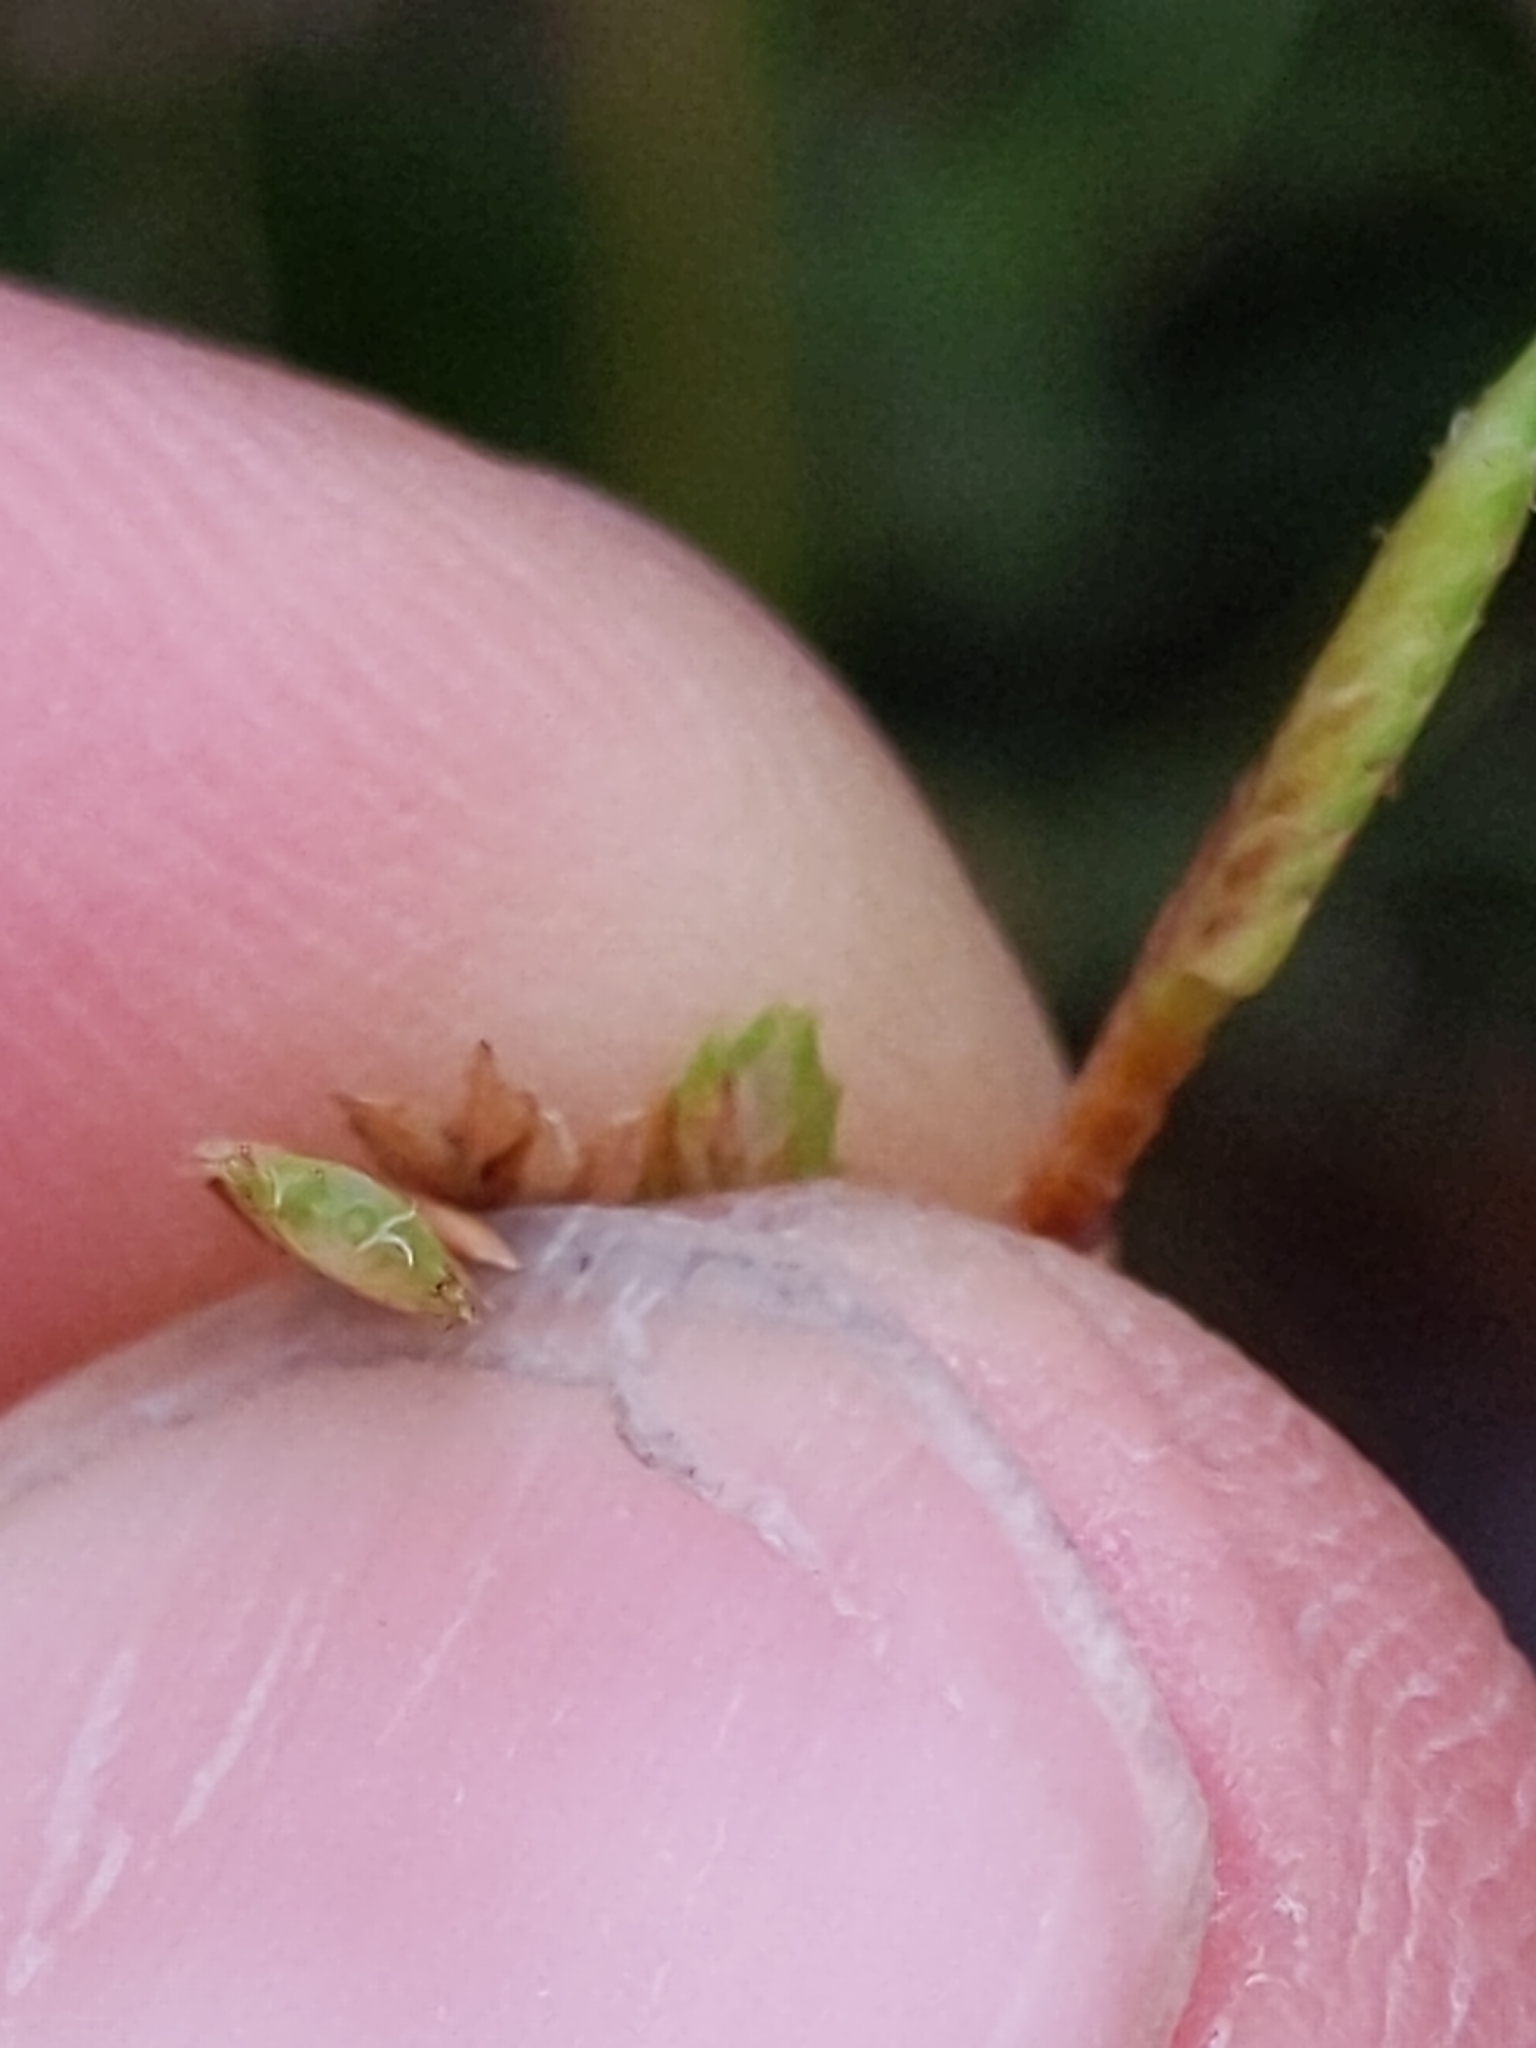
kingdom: Plantae
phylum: Tracheophyta
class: Liliopsida
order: Poales
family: Cyperaceae
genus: Cyperus
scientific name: Cyperus eragrostis
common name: Tall flatsedge
